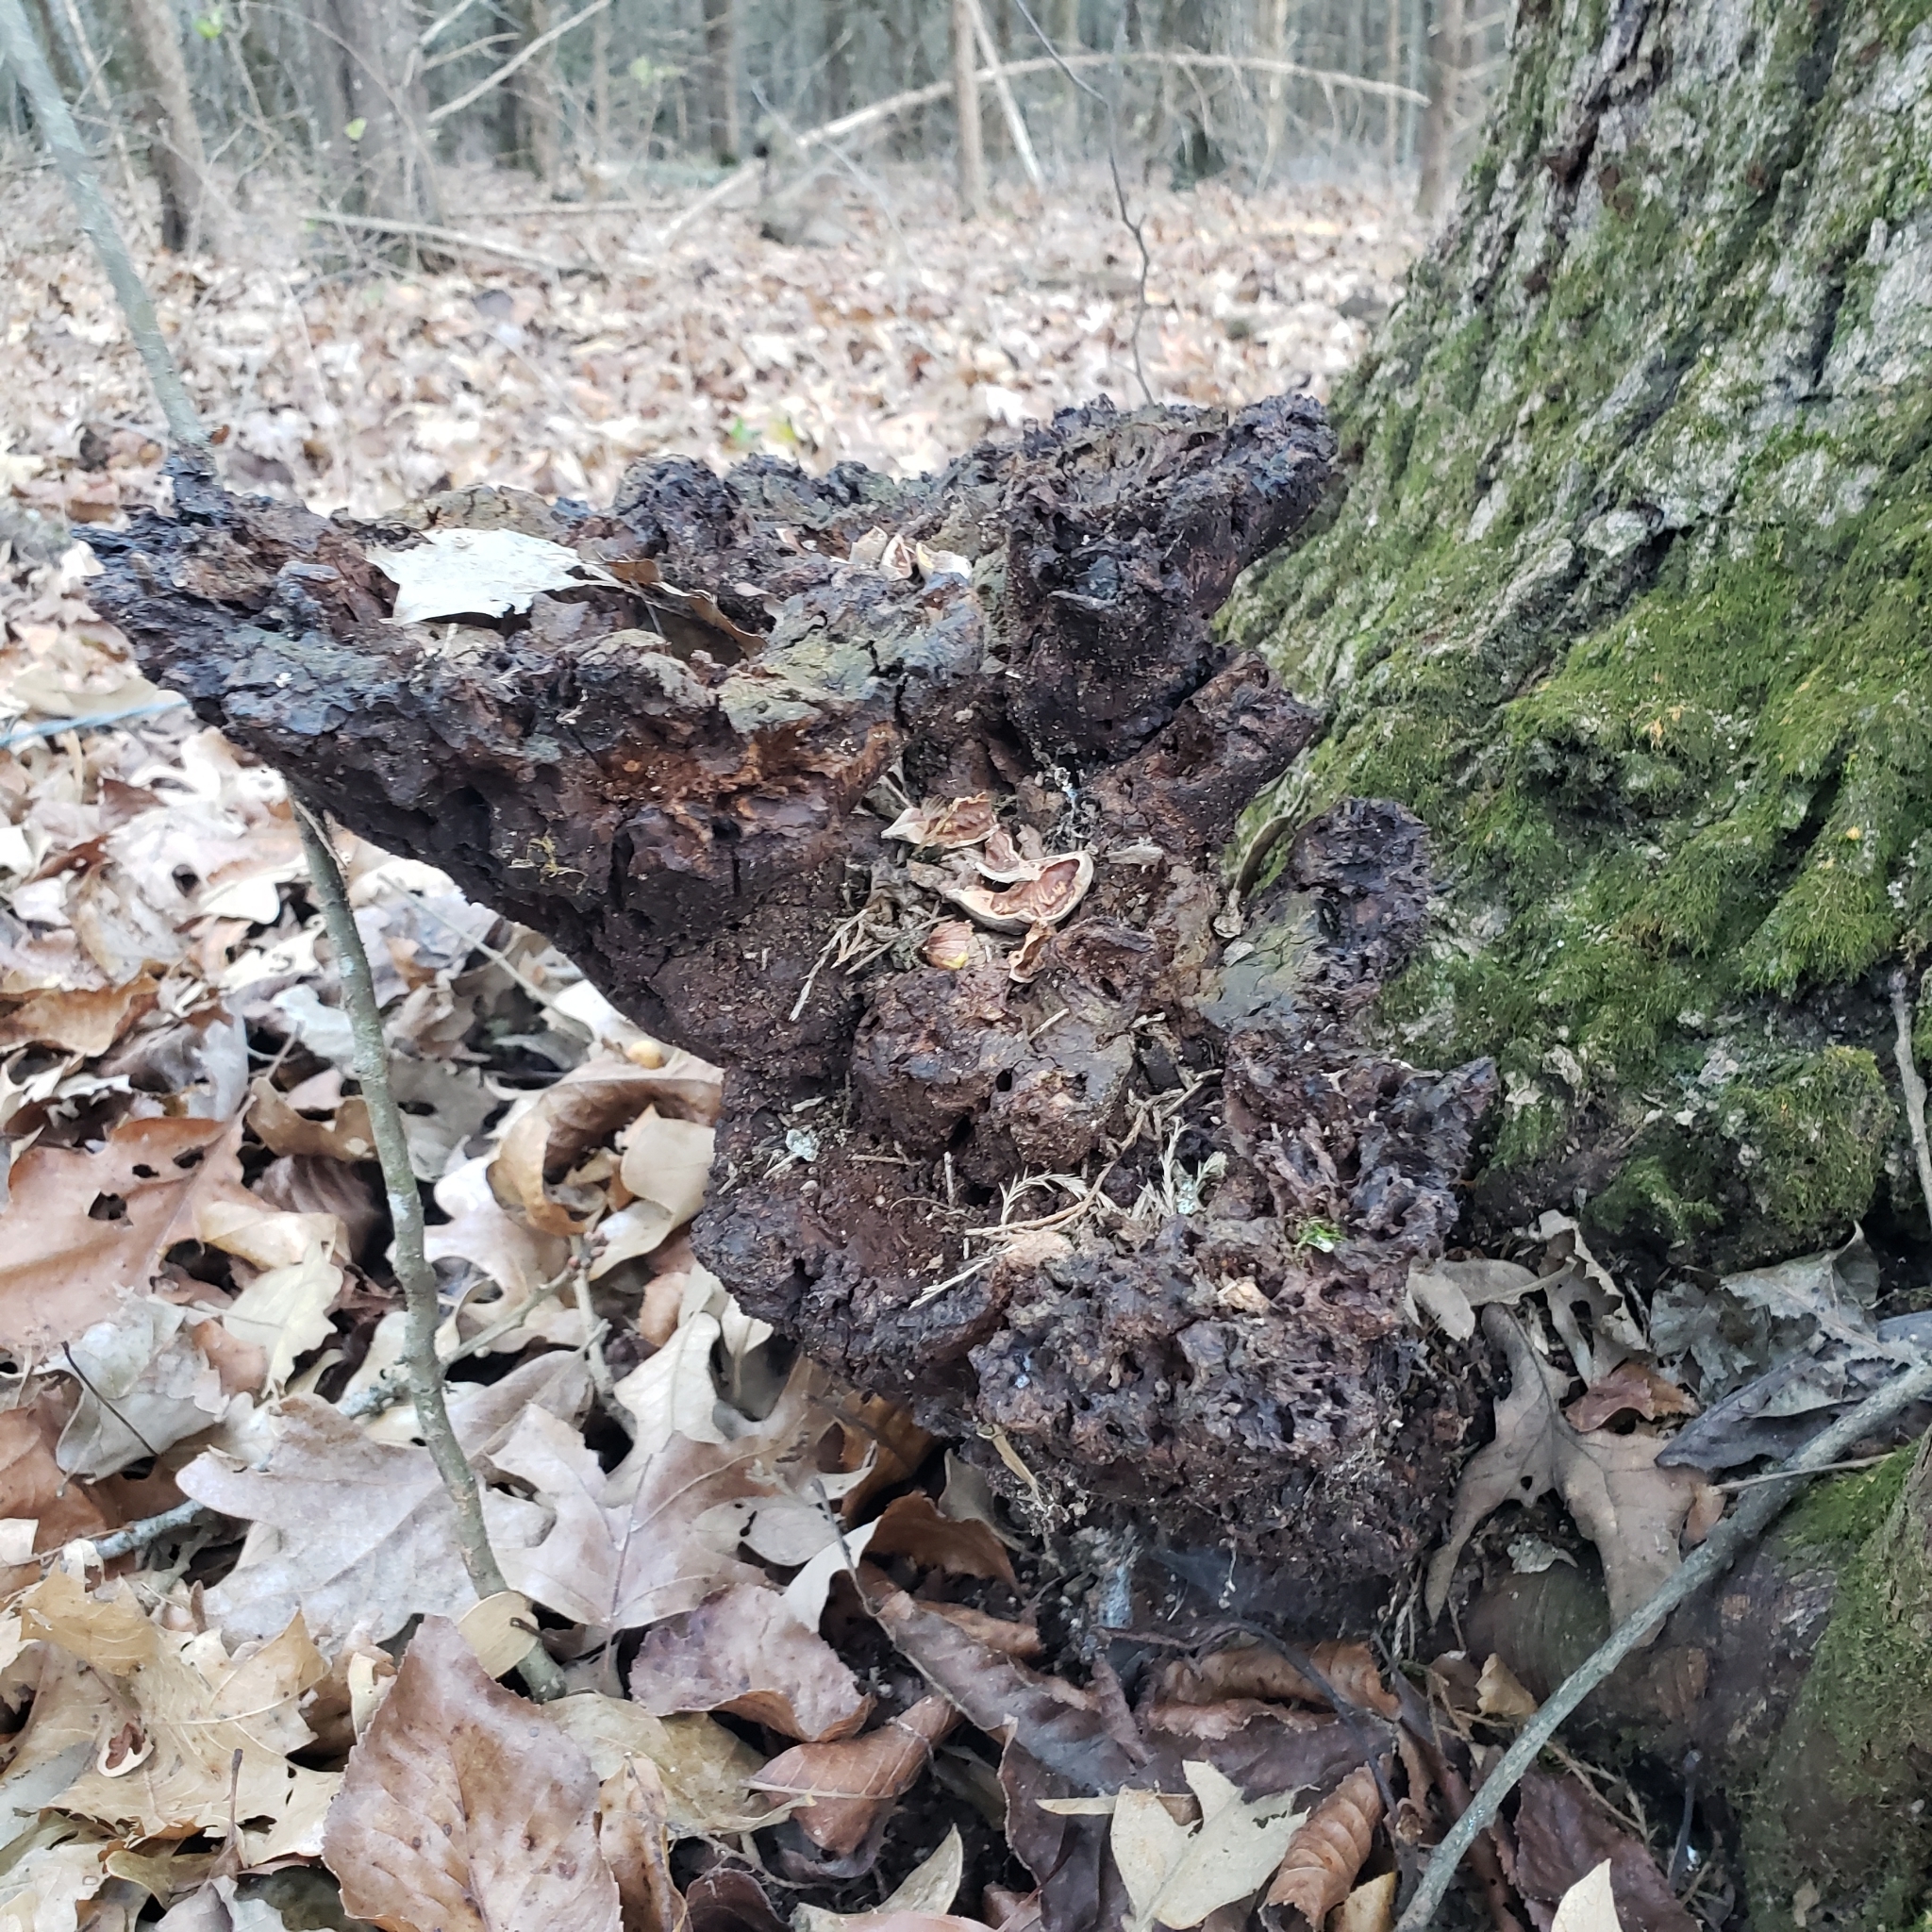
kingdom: Fungi
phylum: Basidiomycota
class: Agaricomycetes
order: Hymenochaetales
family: Hymenochaetaceae
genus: Pseudoinonotus
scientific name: Pseudoinonotus dryadeus
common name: Oak bracket
